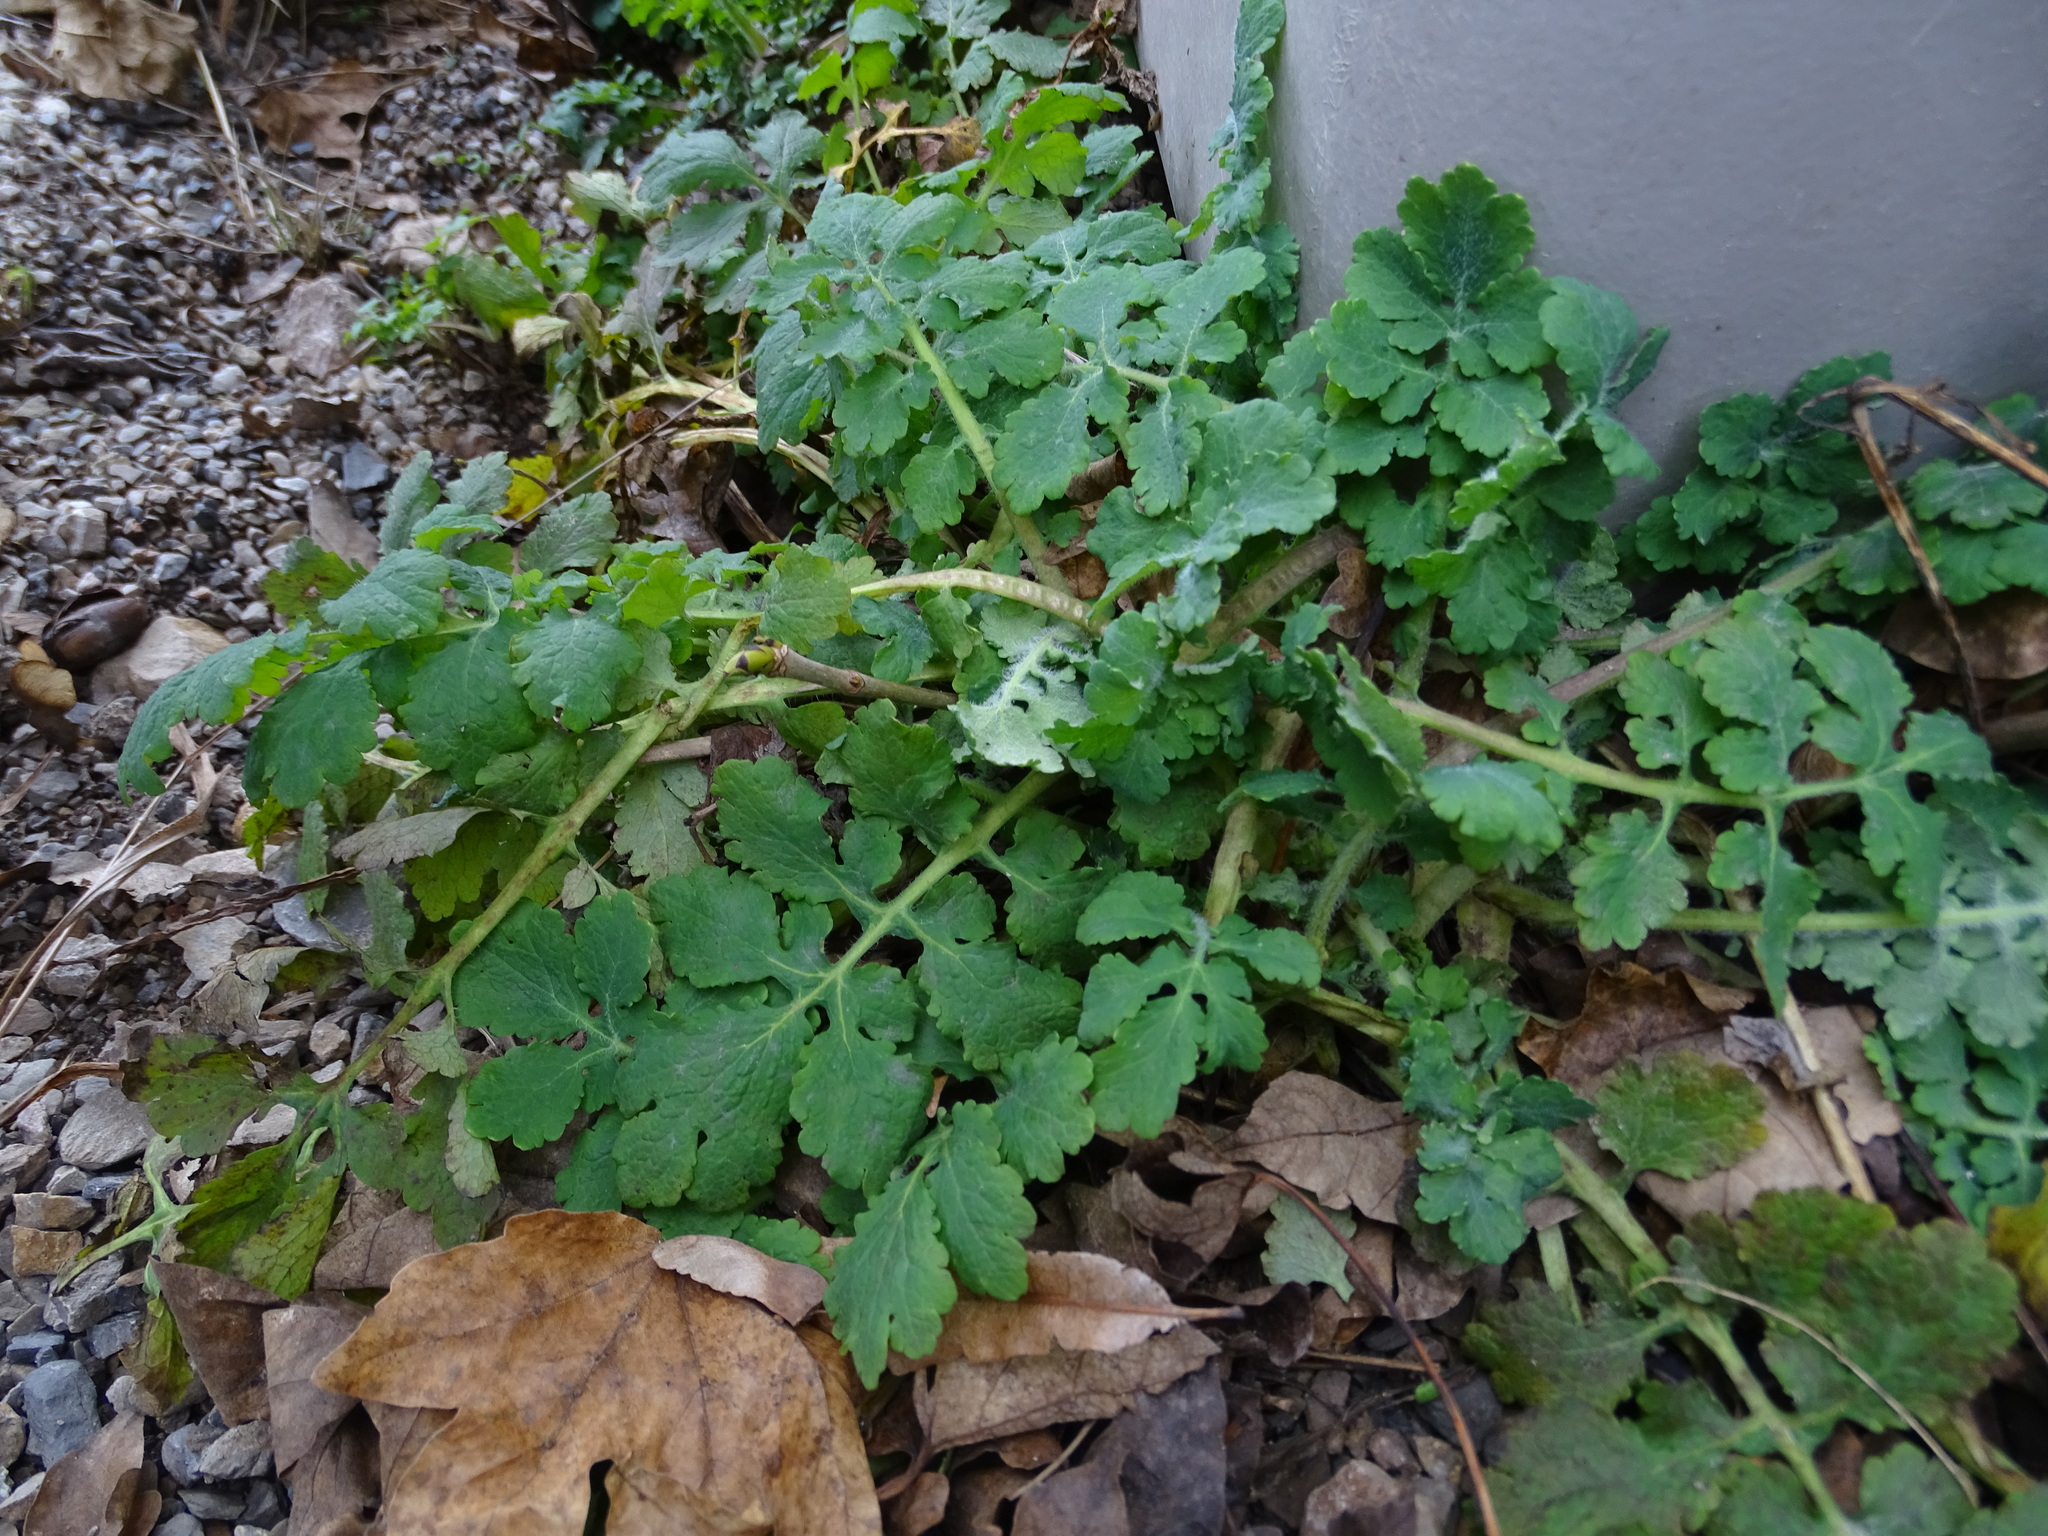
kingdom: Plantae
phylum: Tracheophyta
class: Magnoliopsida
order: Ranunculales
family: Papaveraceae
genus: Chelidonium
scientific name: Chelidonium majus
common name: Greater celandine
